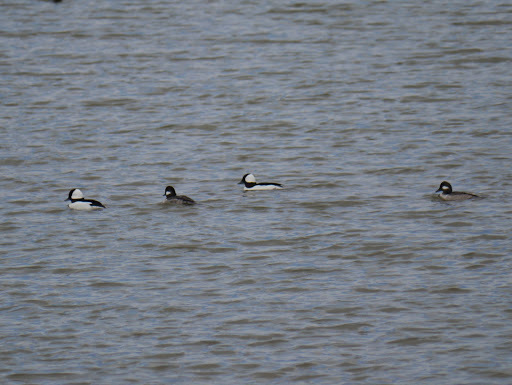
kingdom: Animalia
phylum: Chordata
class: Aves
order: Anseriformes
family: Anatidae
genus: Bucephala
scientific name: Bucephala albeola
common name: Bufflehead
